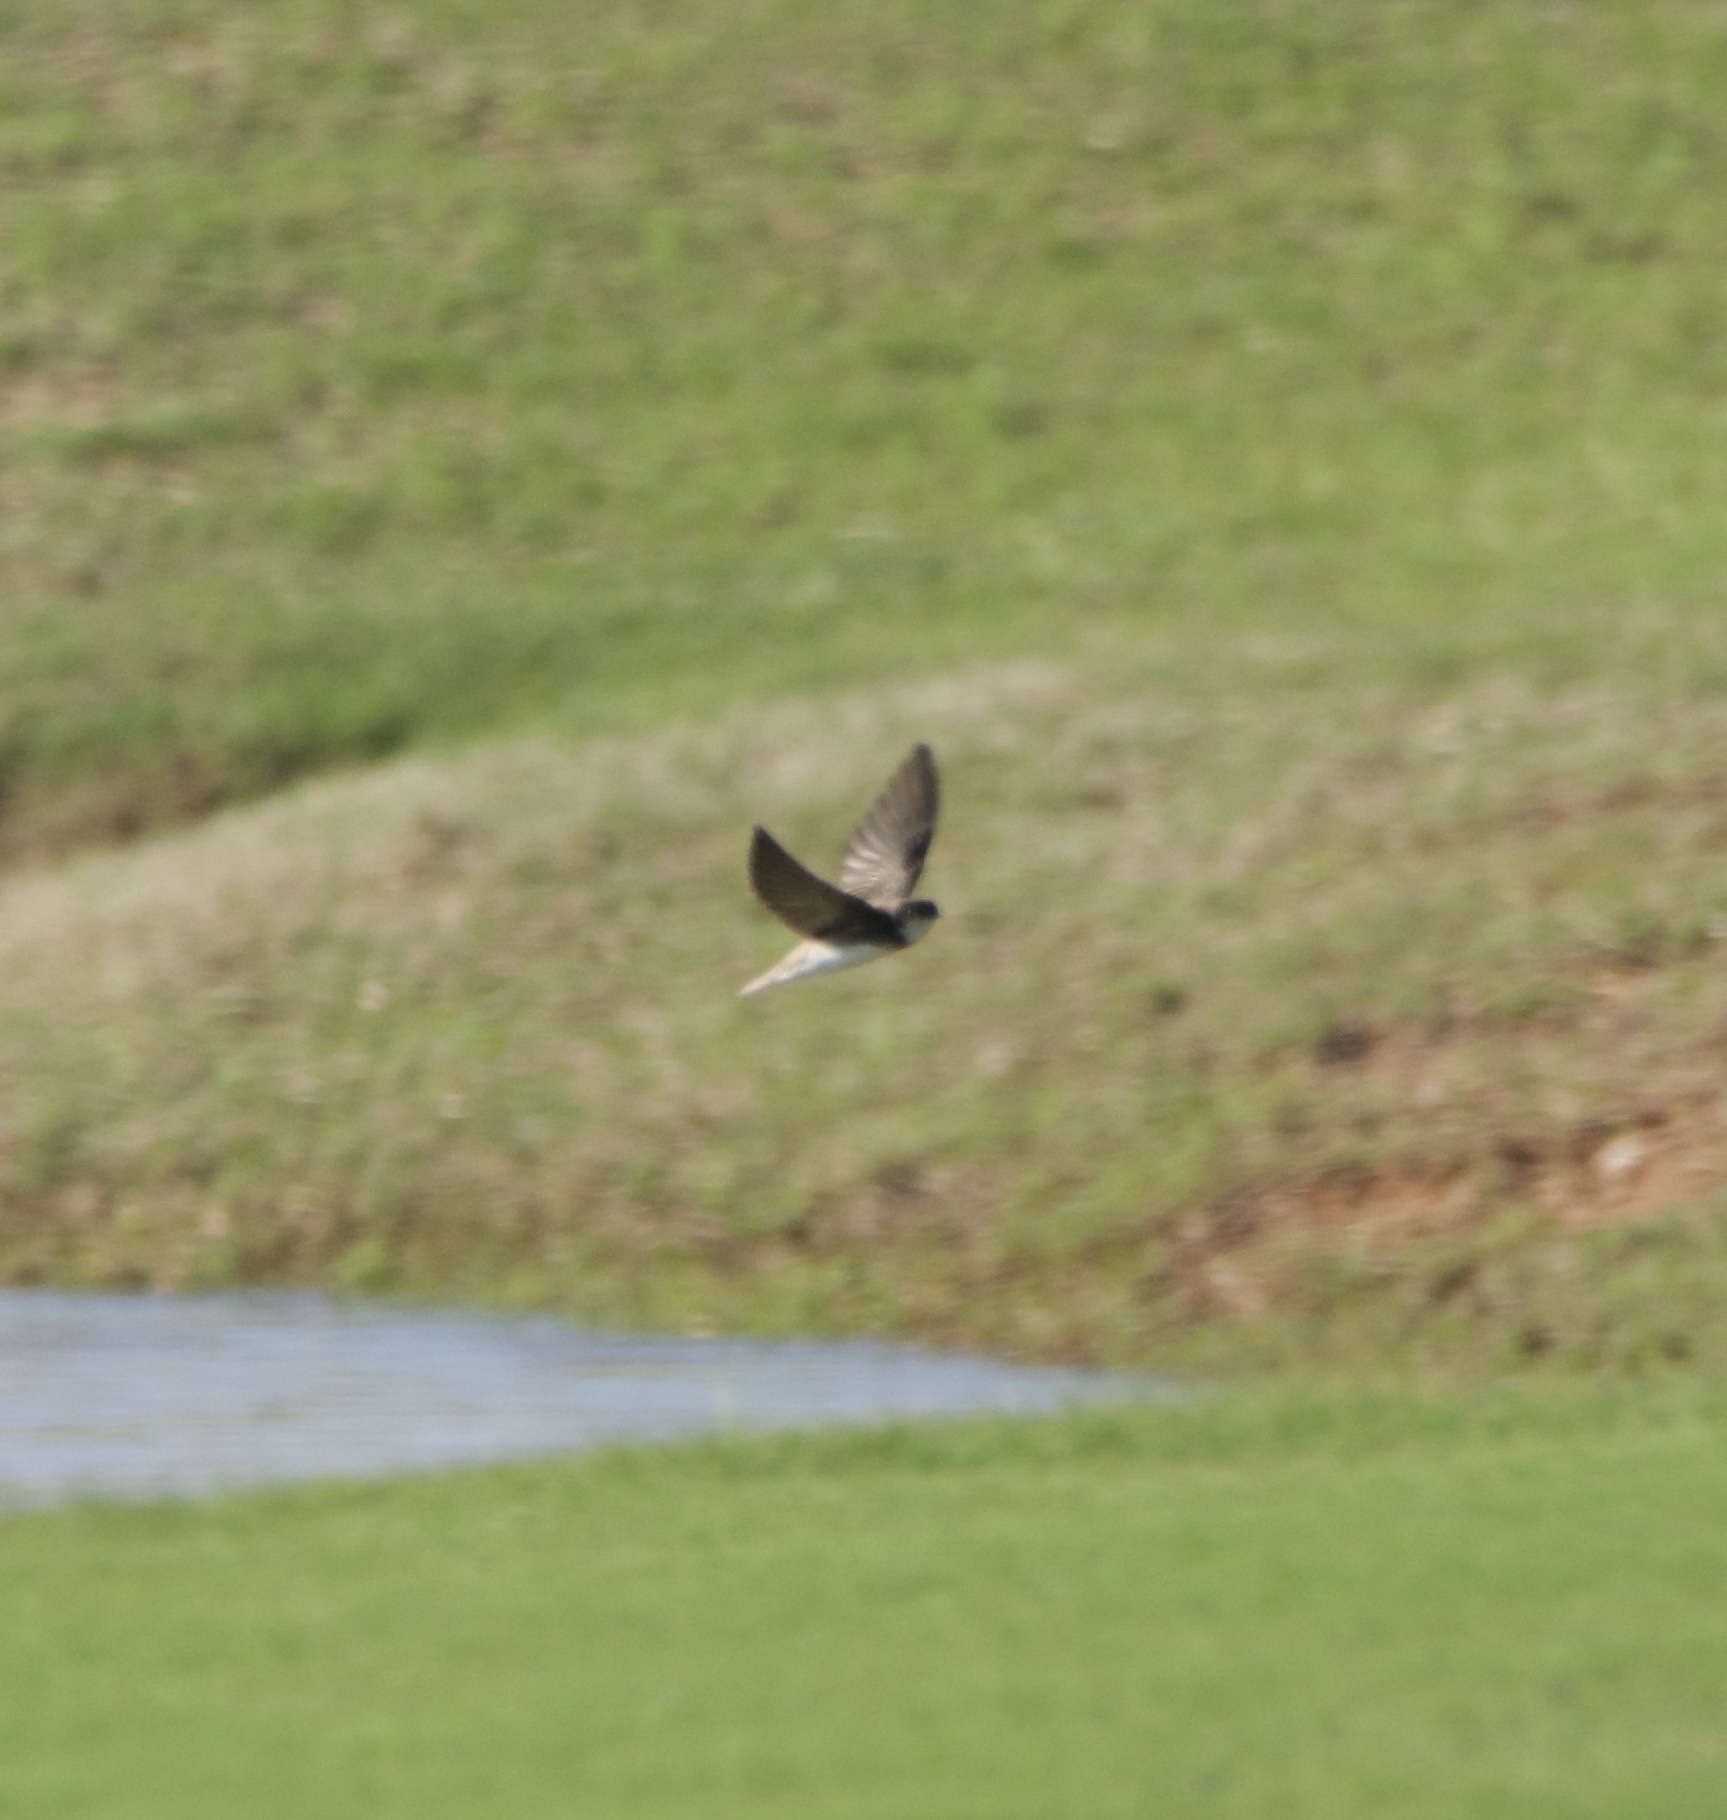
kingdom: Animalia
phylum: Chordata
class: Aves
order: Passeriformes
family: Hirundinidae
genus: Riparia
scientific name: Riparia riparia
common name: Sand martin
